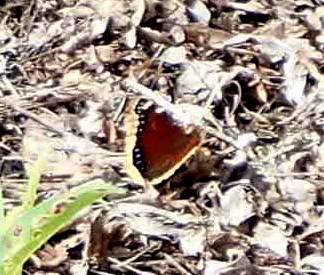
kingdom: Animalia
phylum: Arthropoda
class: Insecta
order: Lepidoptera
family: Nymphalidae
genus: Nymphalis
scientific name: Nymphalis antiopa
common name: Camberwell beauty
